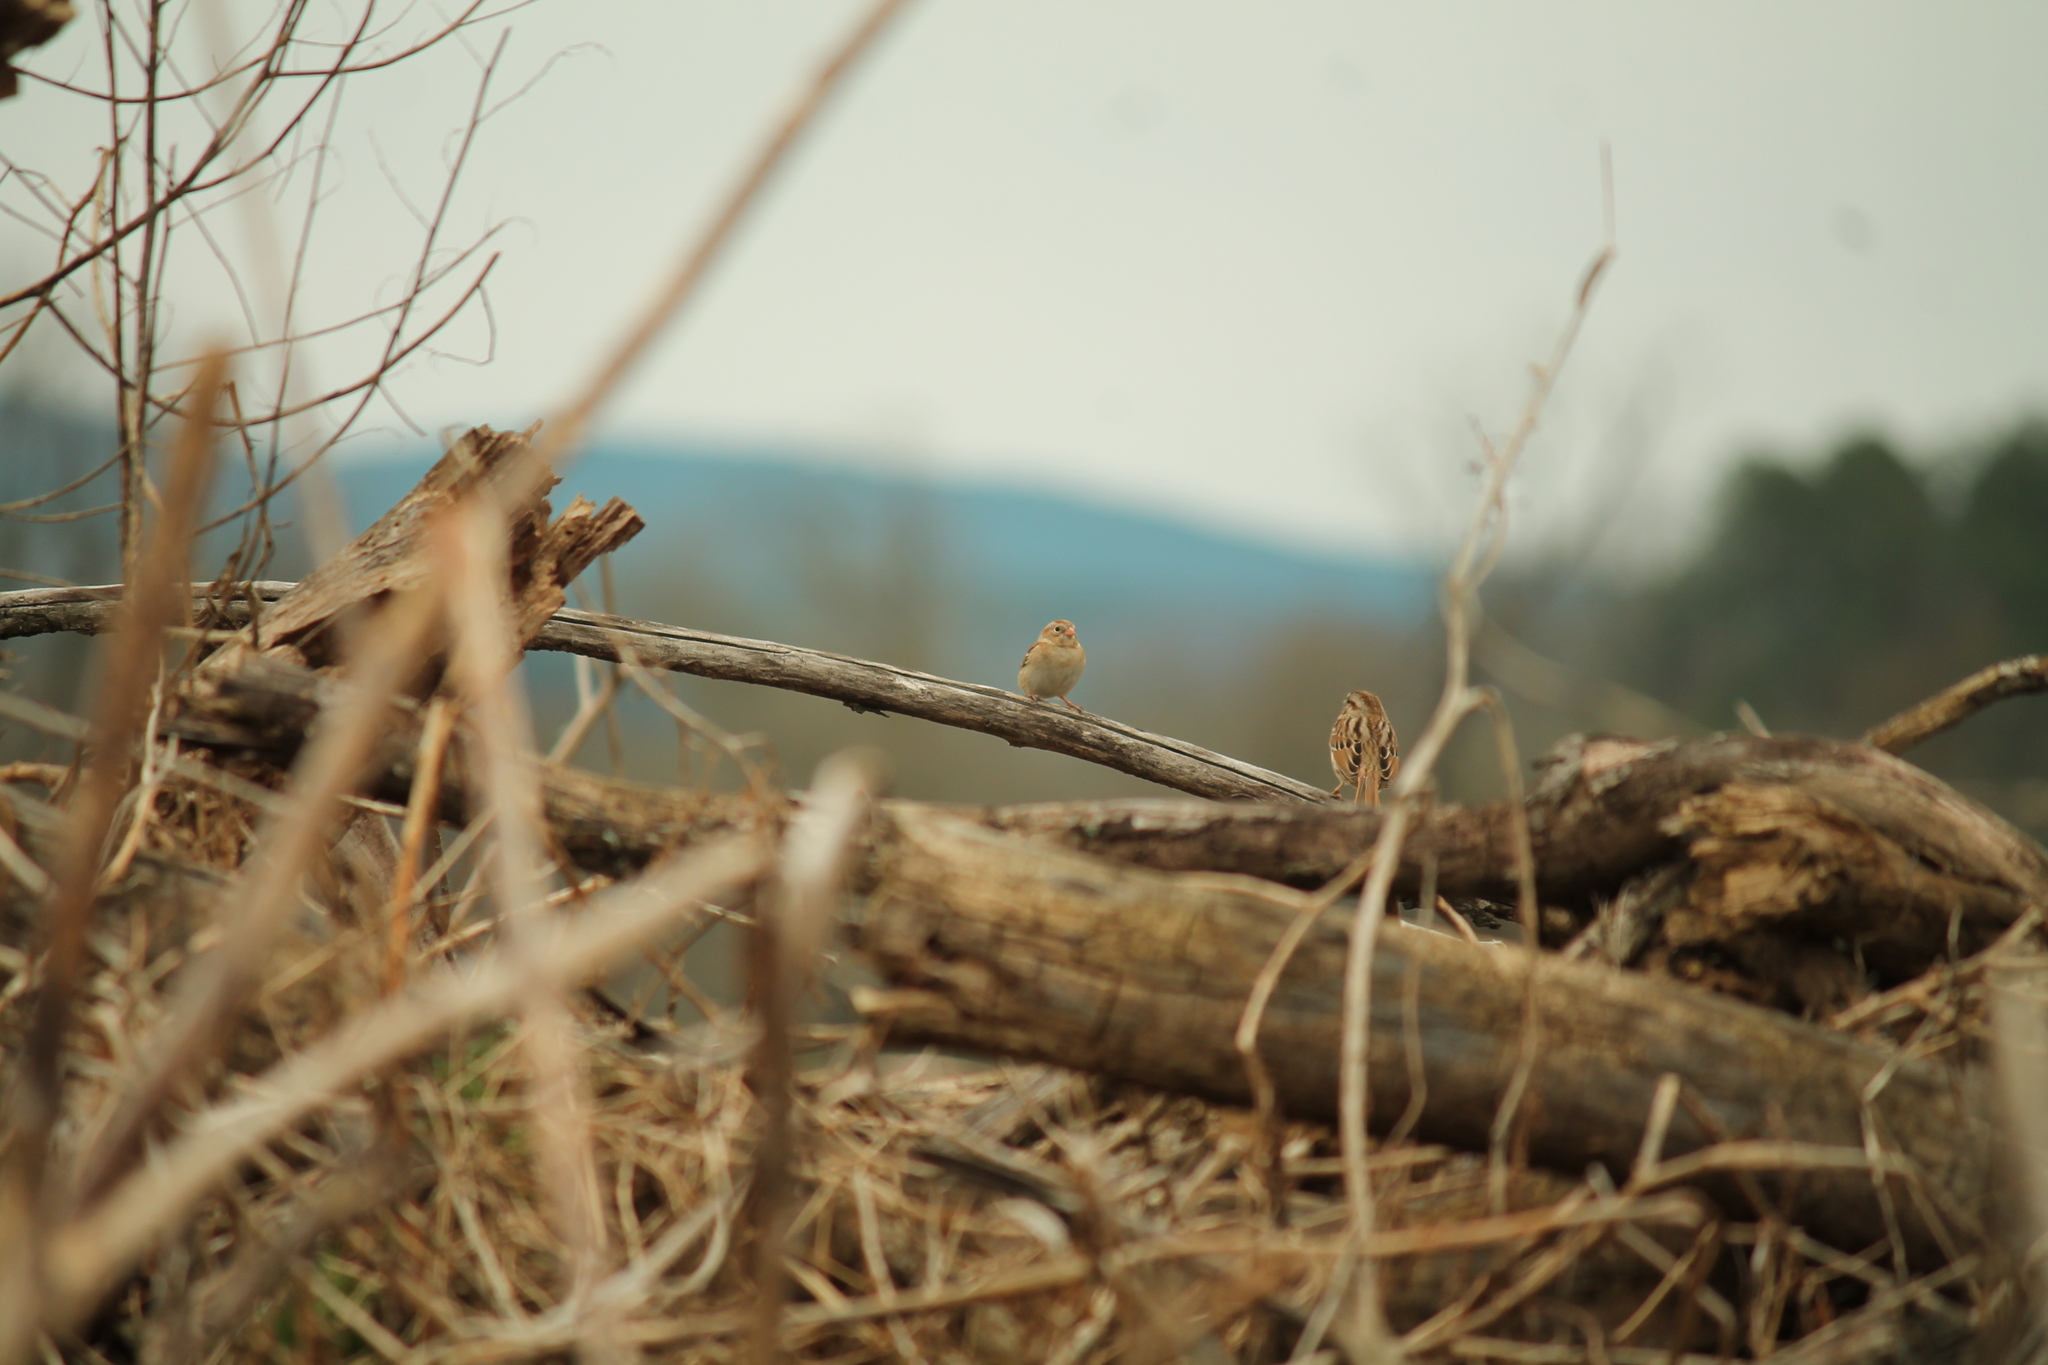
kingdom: Animalia
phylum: Chordata
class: Aves
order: Passeriformes
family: Passerellidae
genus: Spizella
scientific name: Spizella pusilla
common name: Field sparrow
